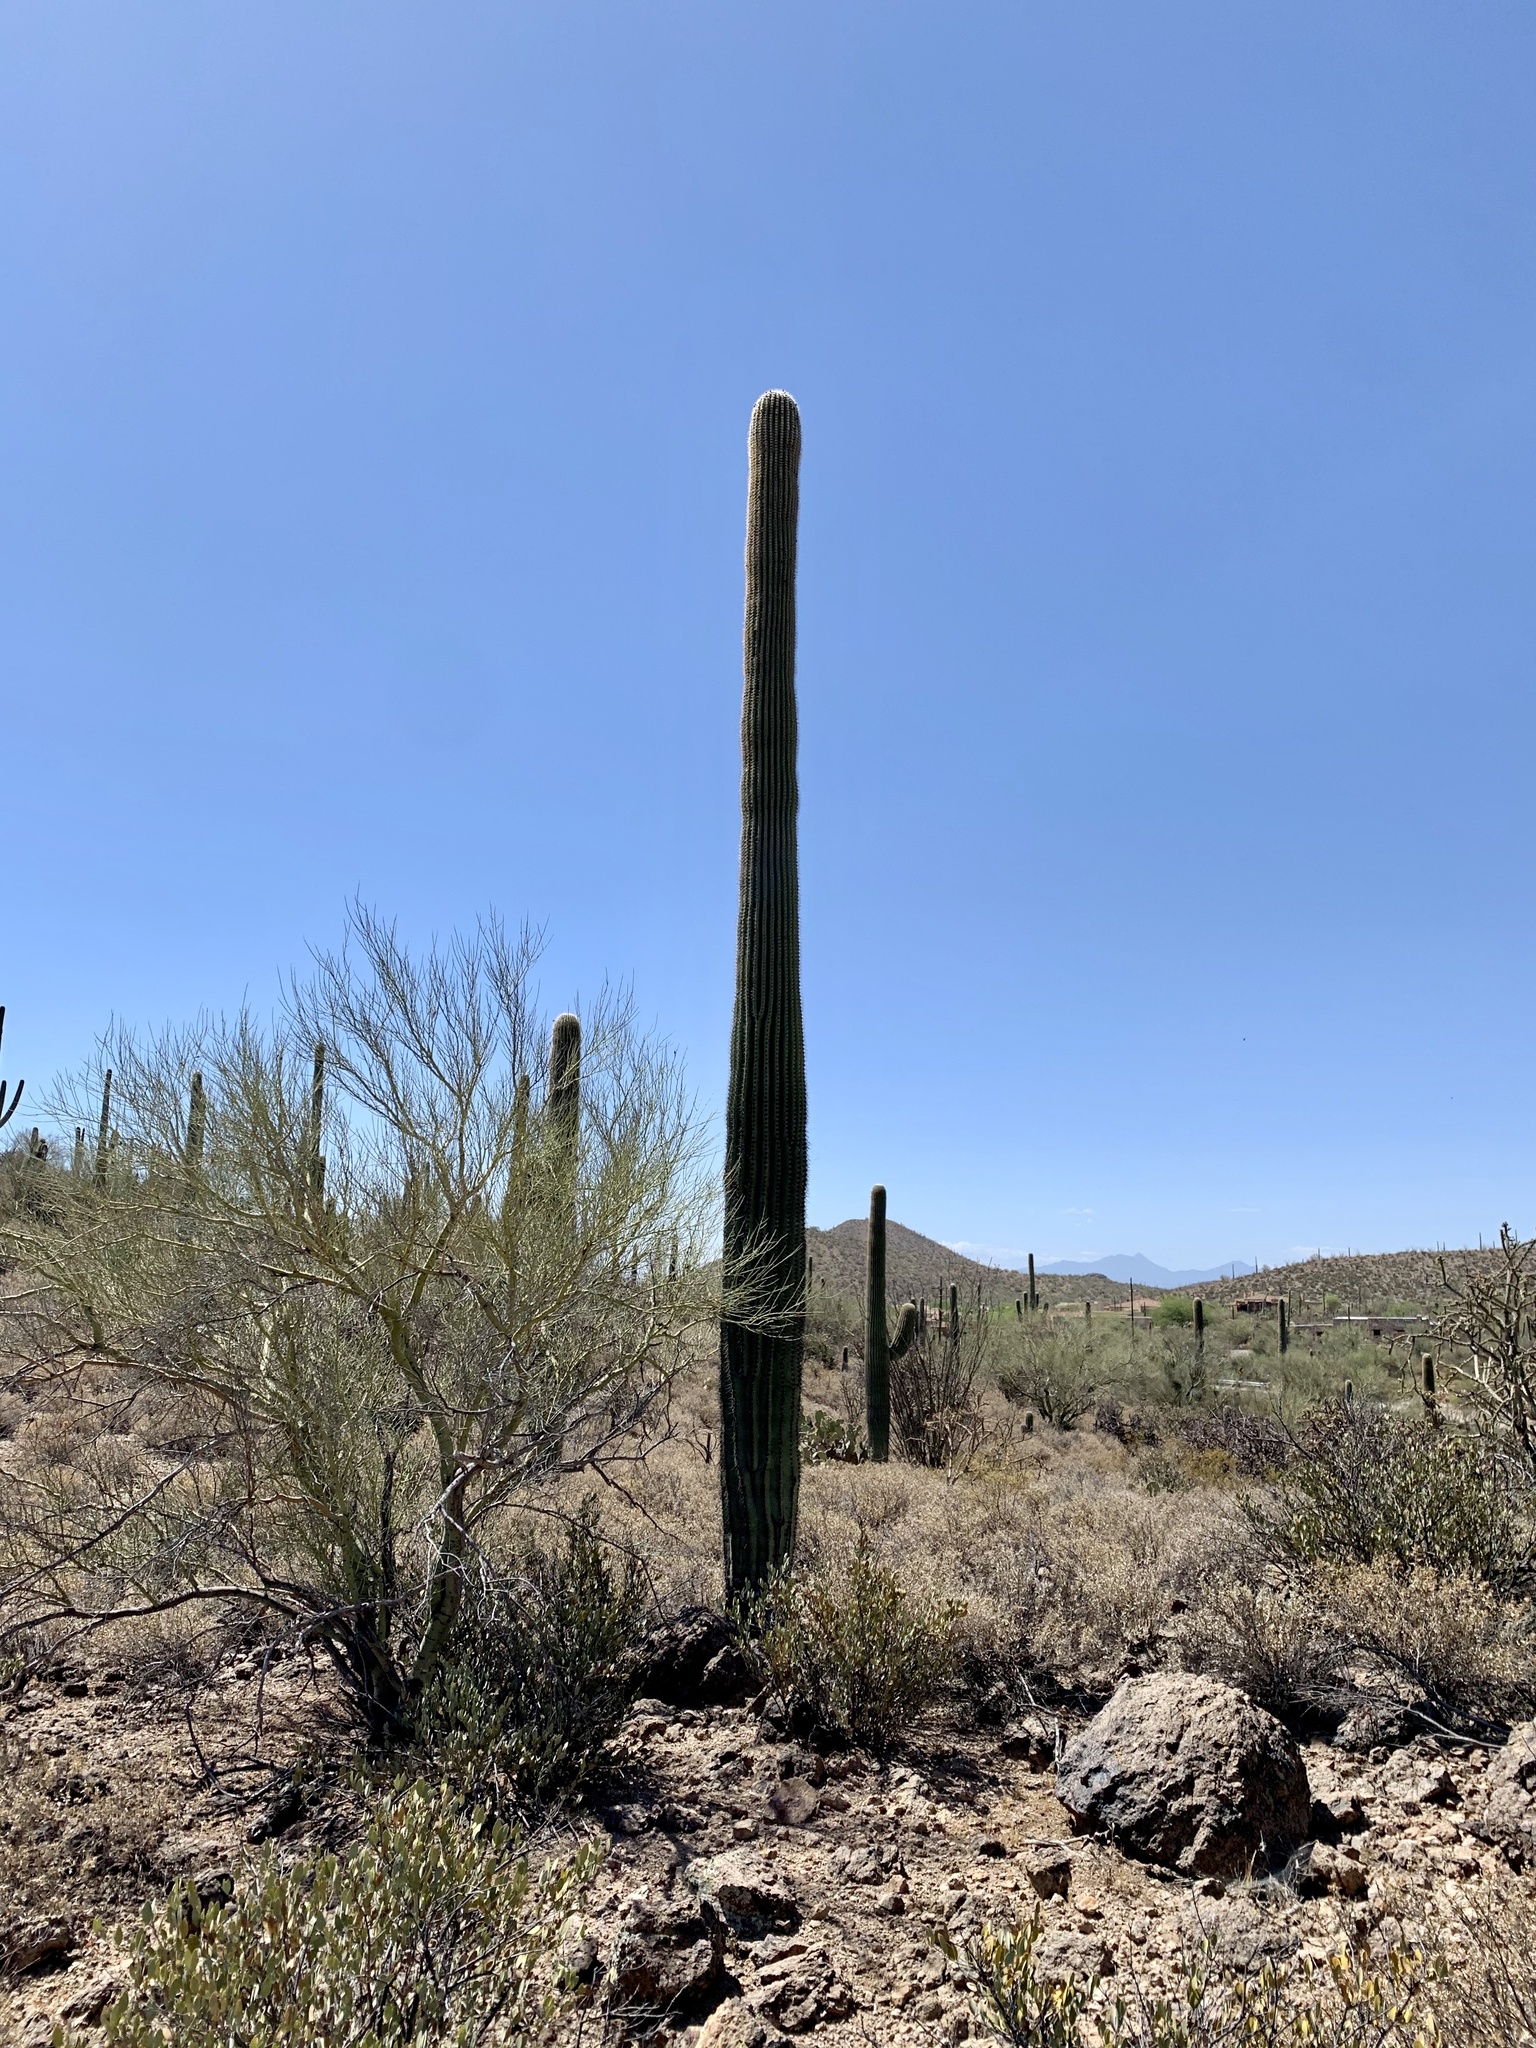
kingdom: Plantae
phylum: Tracheophyta
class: Magnoliopsida
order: Caryophyllales
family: Cactaceae
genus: Carnegiea
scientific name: Carnegiea gigantea
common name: Saguaro
